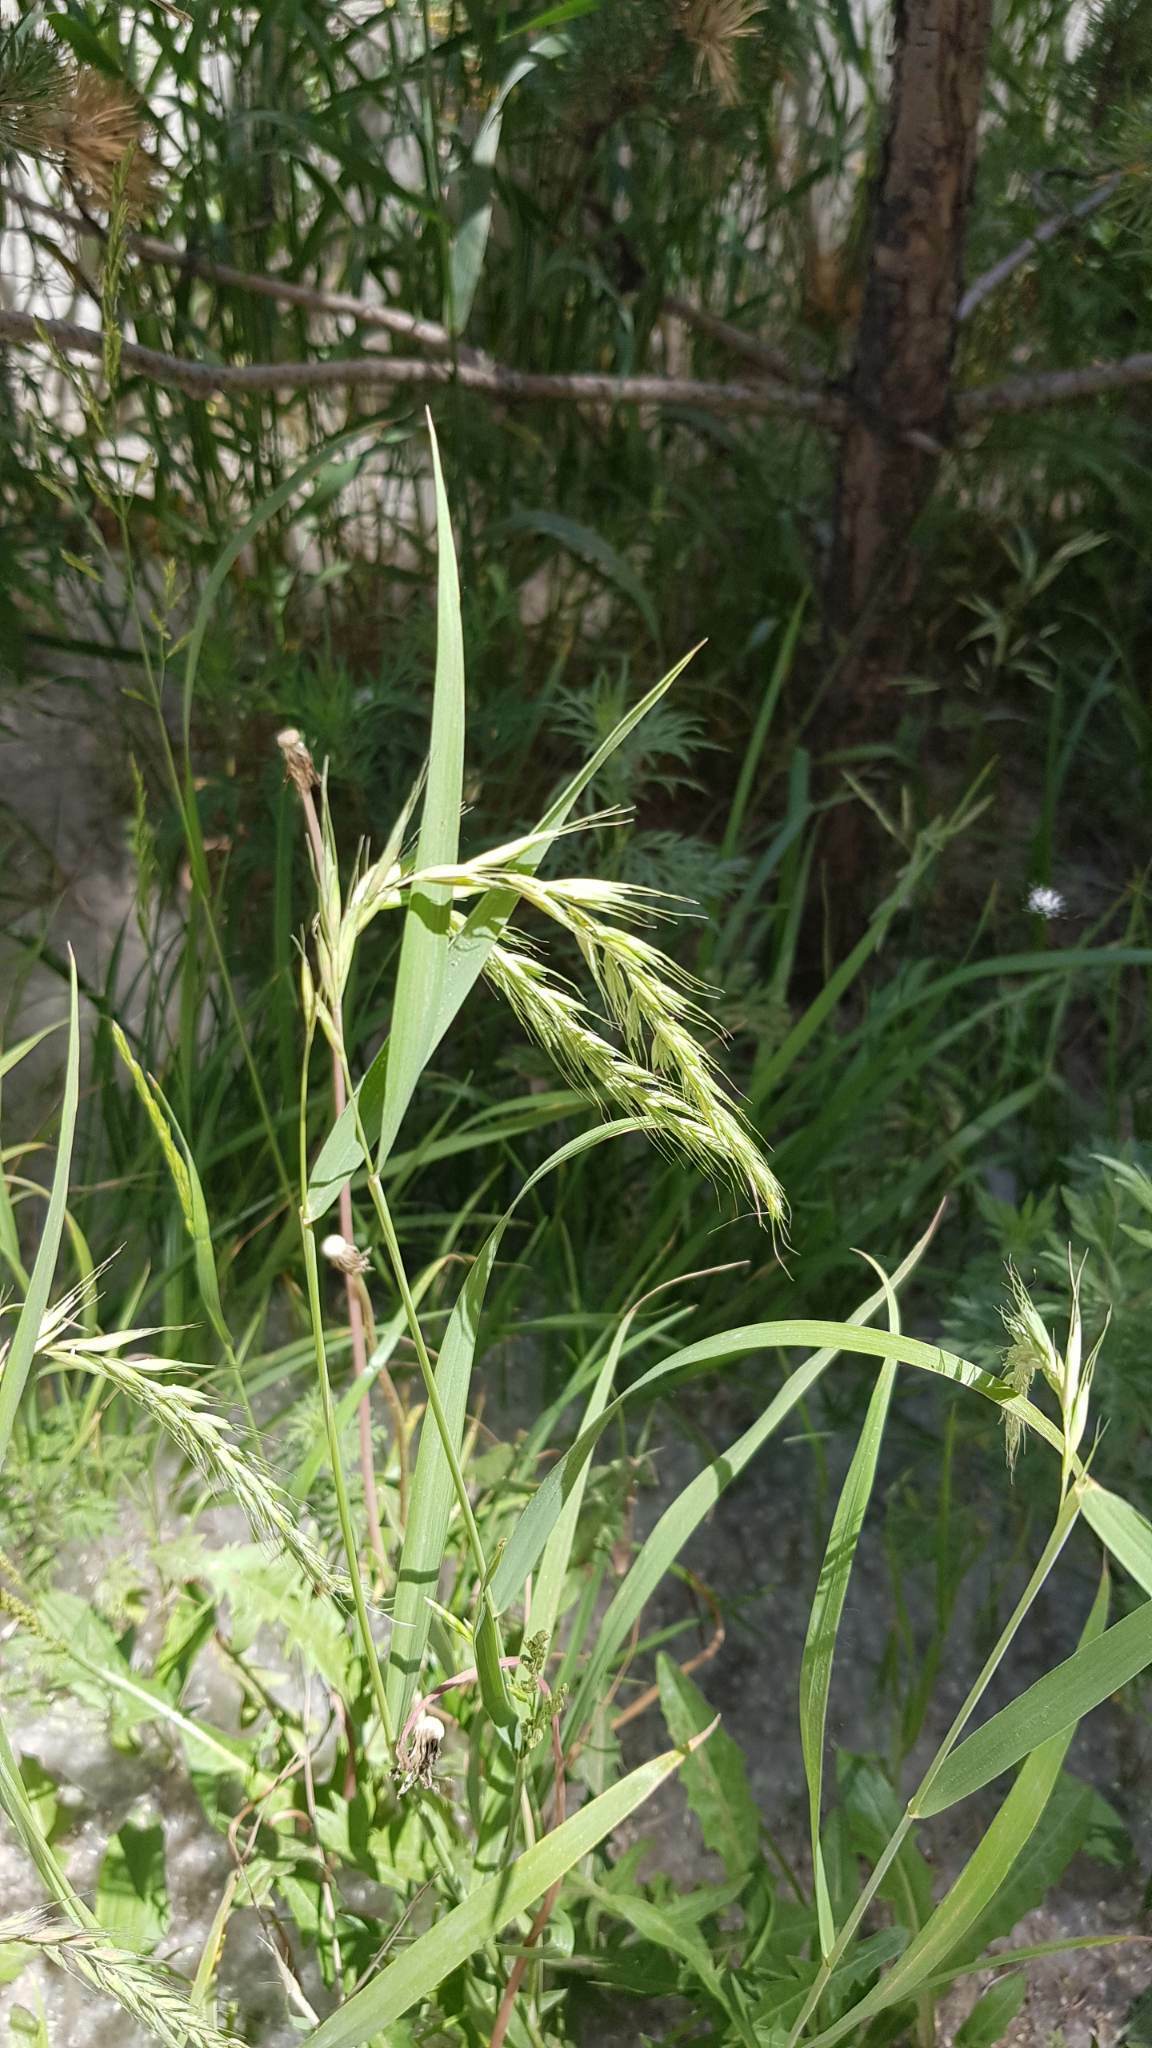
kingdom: Plantae
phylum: Tracheophyta
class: Liliopsida
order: Poales
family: Poaceae
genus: Elymus
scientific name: Elymus sibiricus
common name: Siberian wildrye
